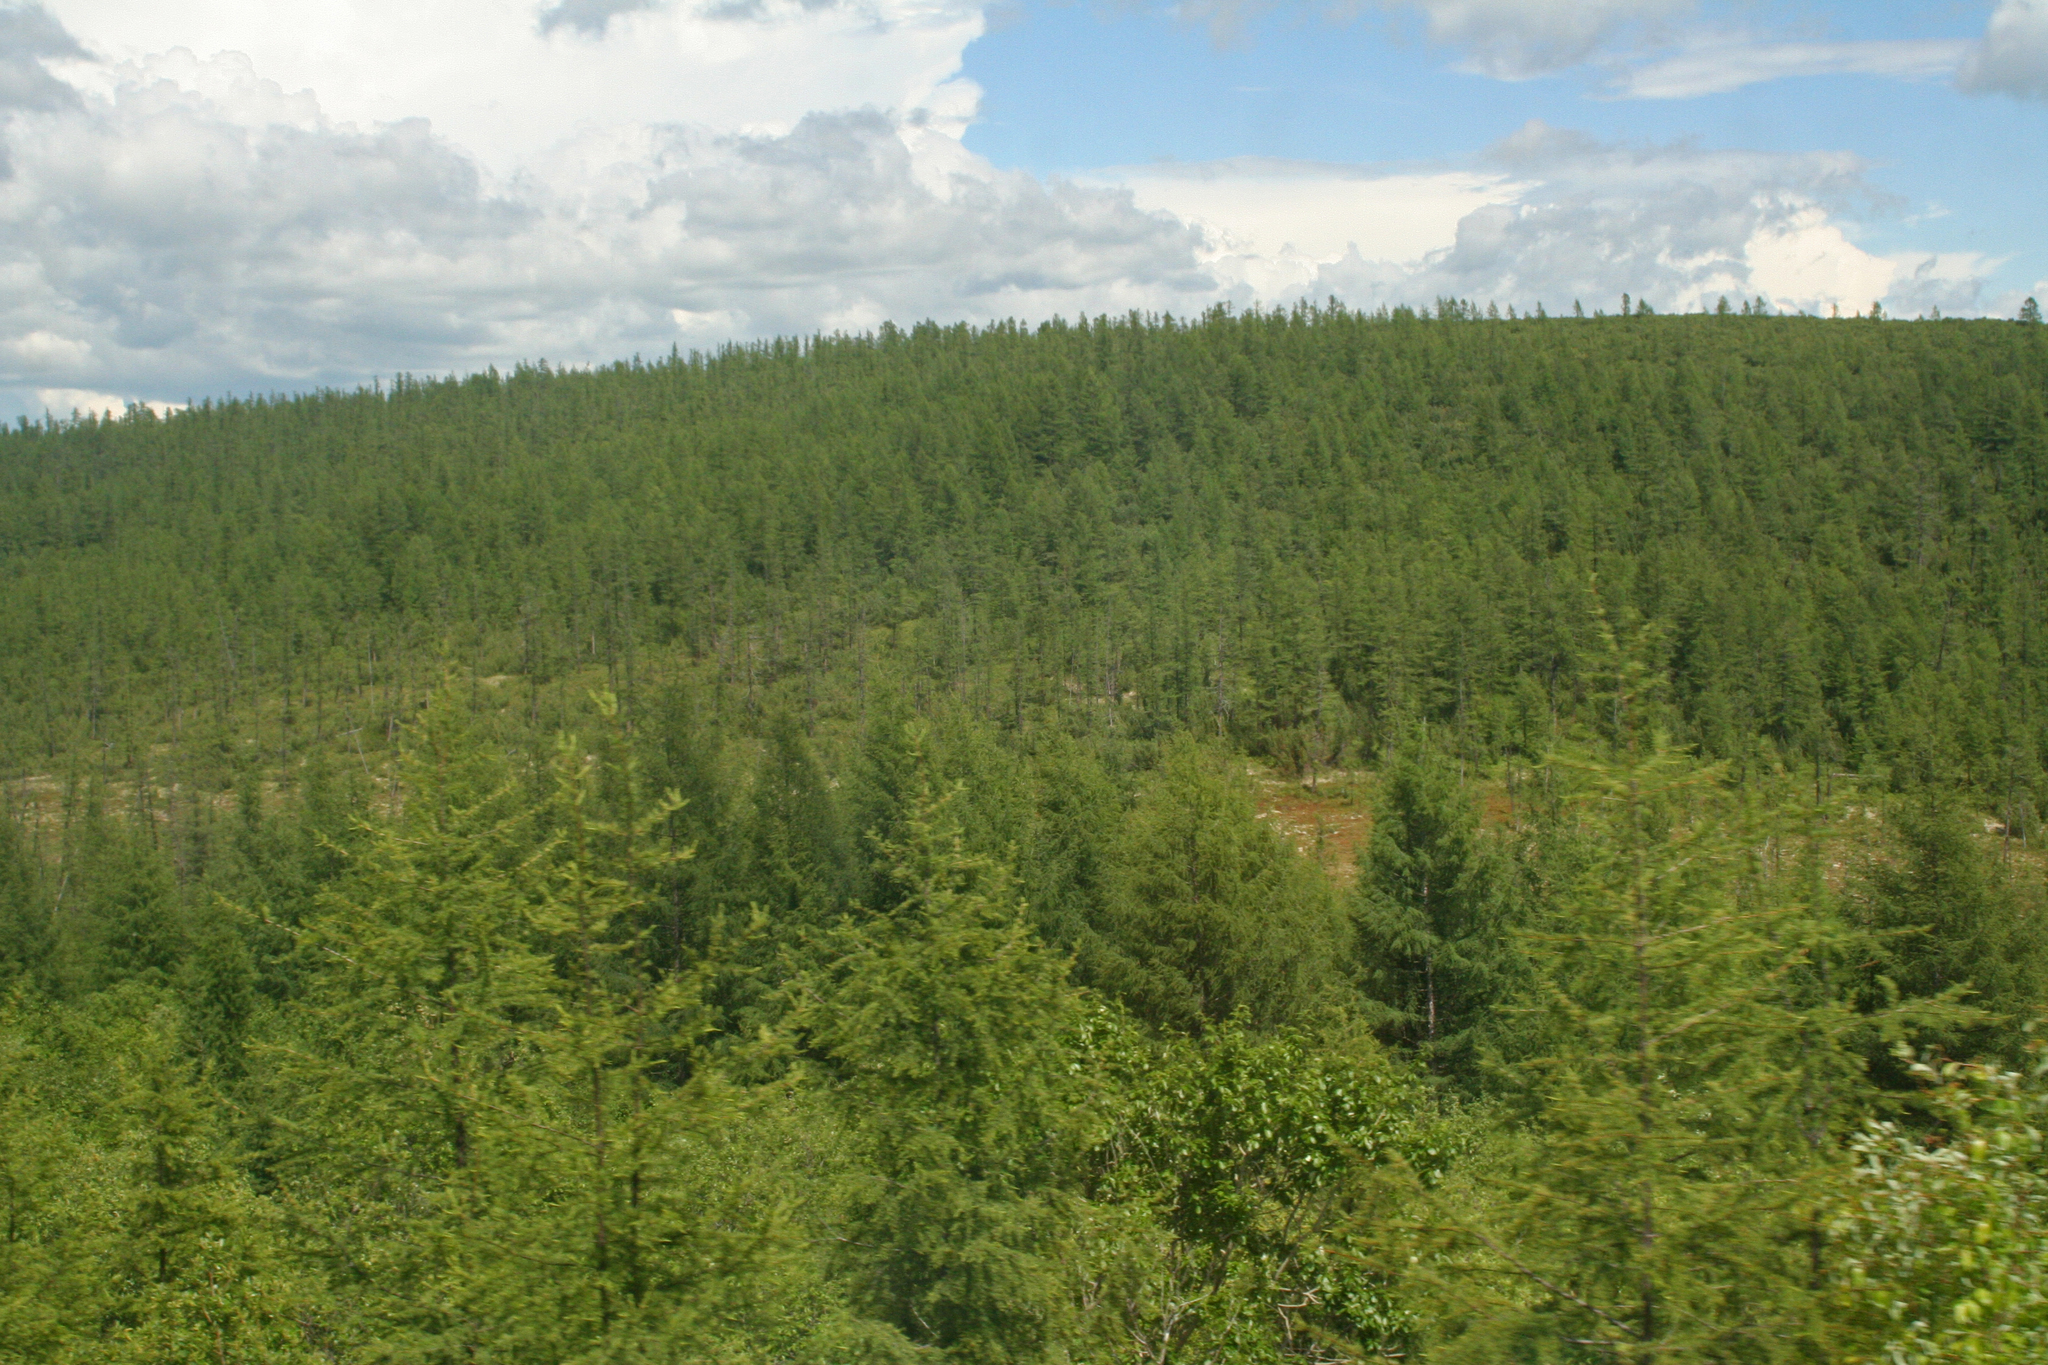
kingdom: Plantae
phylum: Tracheophyta
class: Pinopsida
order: Pinales
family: Pinaceae
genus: Larix
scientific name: Larix gmelinii
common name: Dahurian larch
